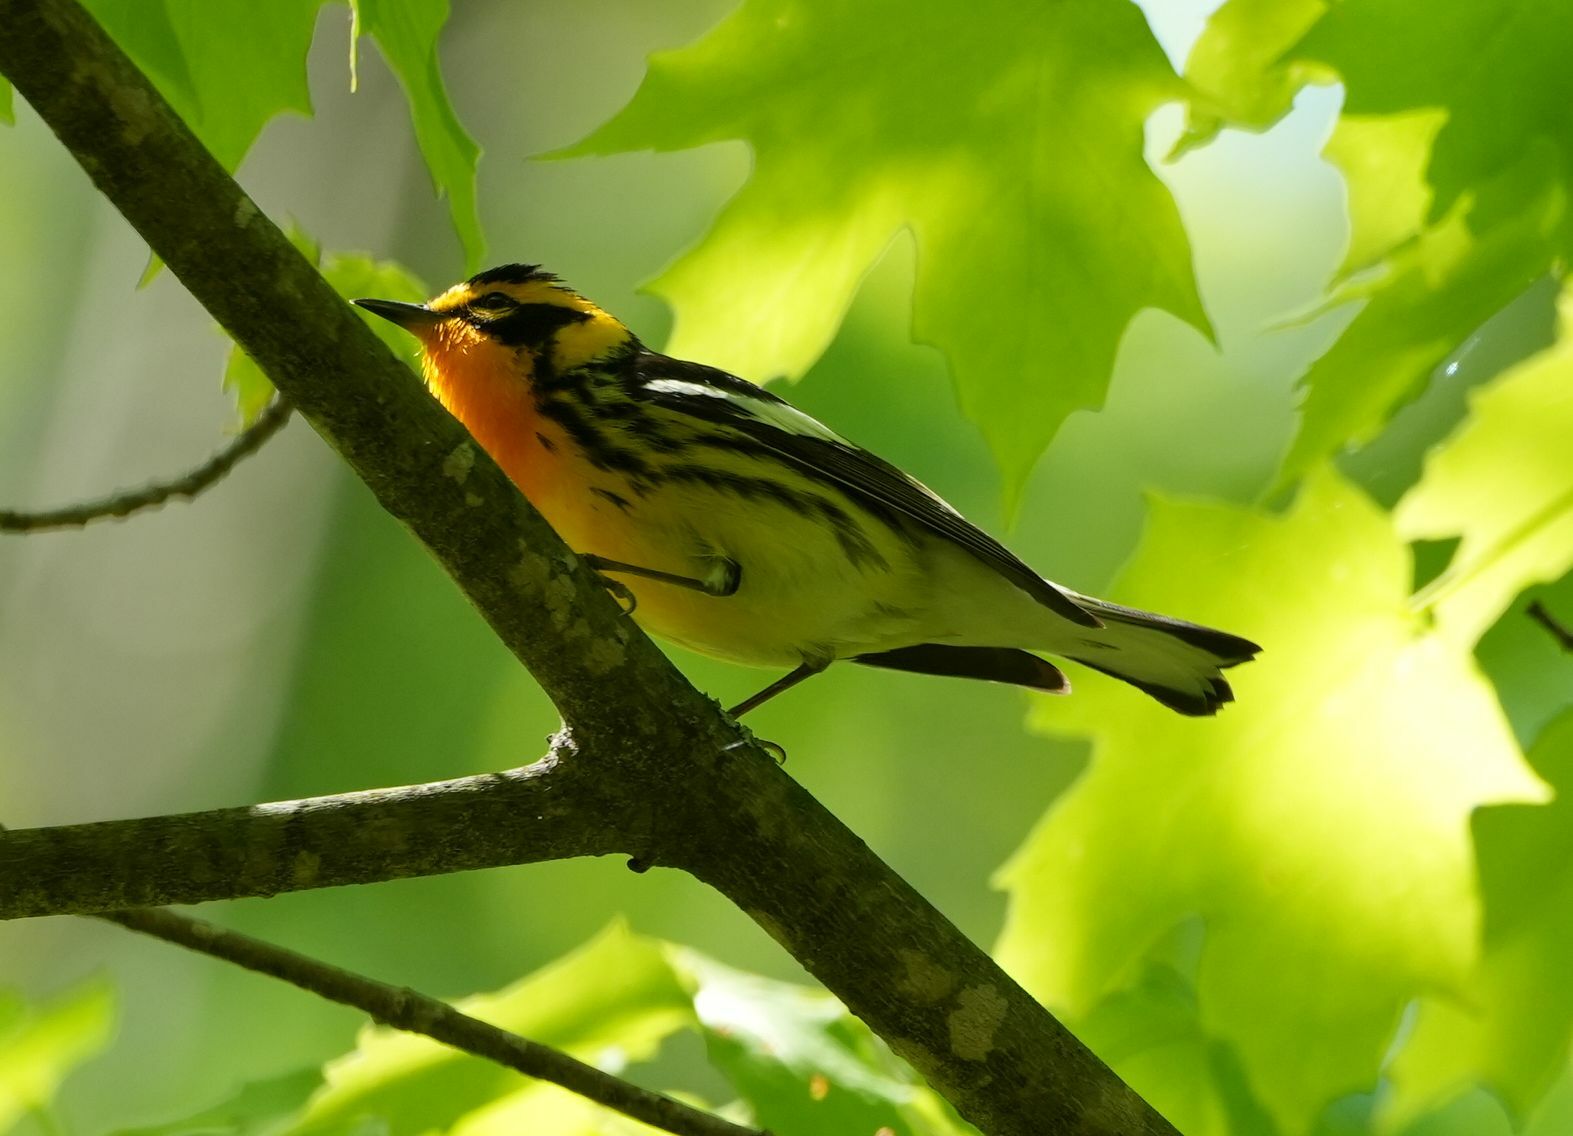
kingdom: Animalia
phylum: Chordata
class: Aves
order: Passeriformes
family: Parulidae
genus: Setophaga
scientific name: Setophaga fusca
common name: Blackburnian warbler
